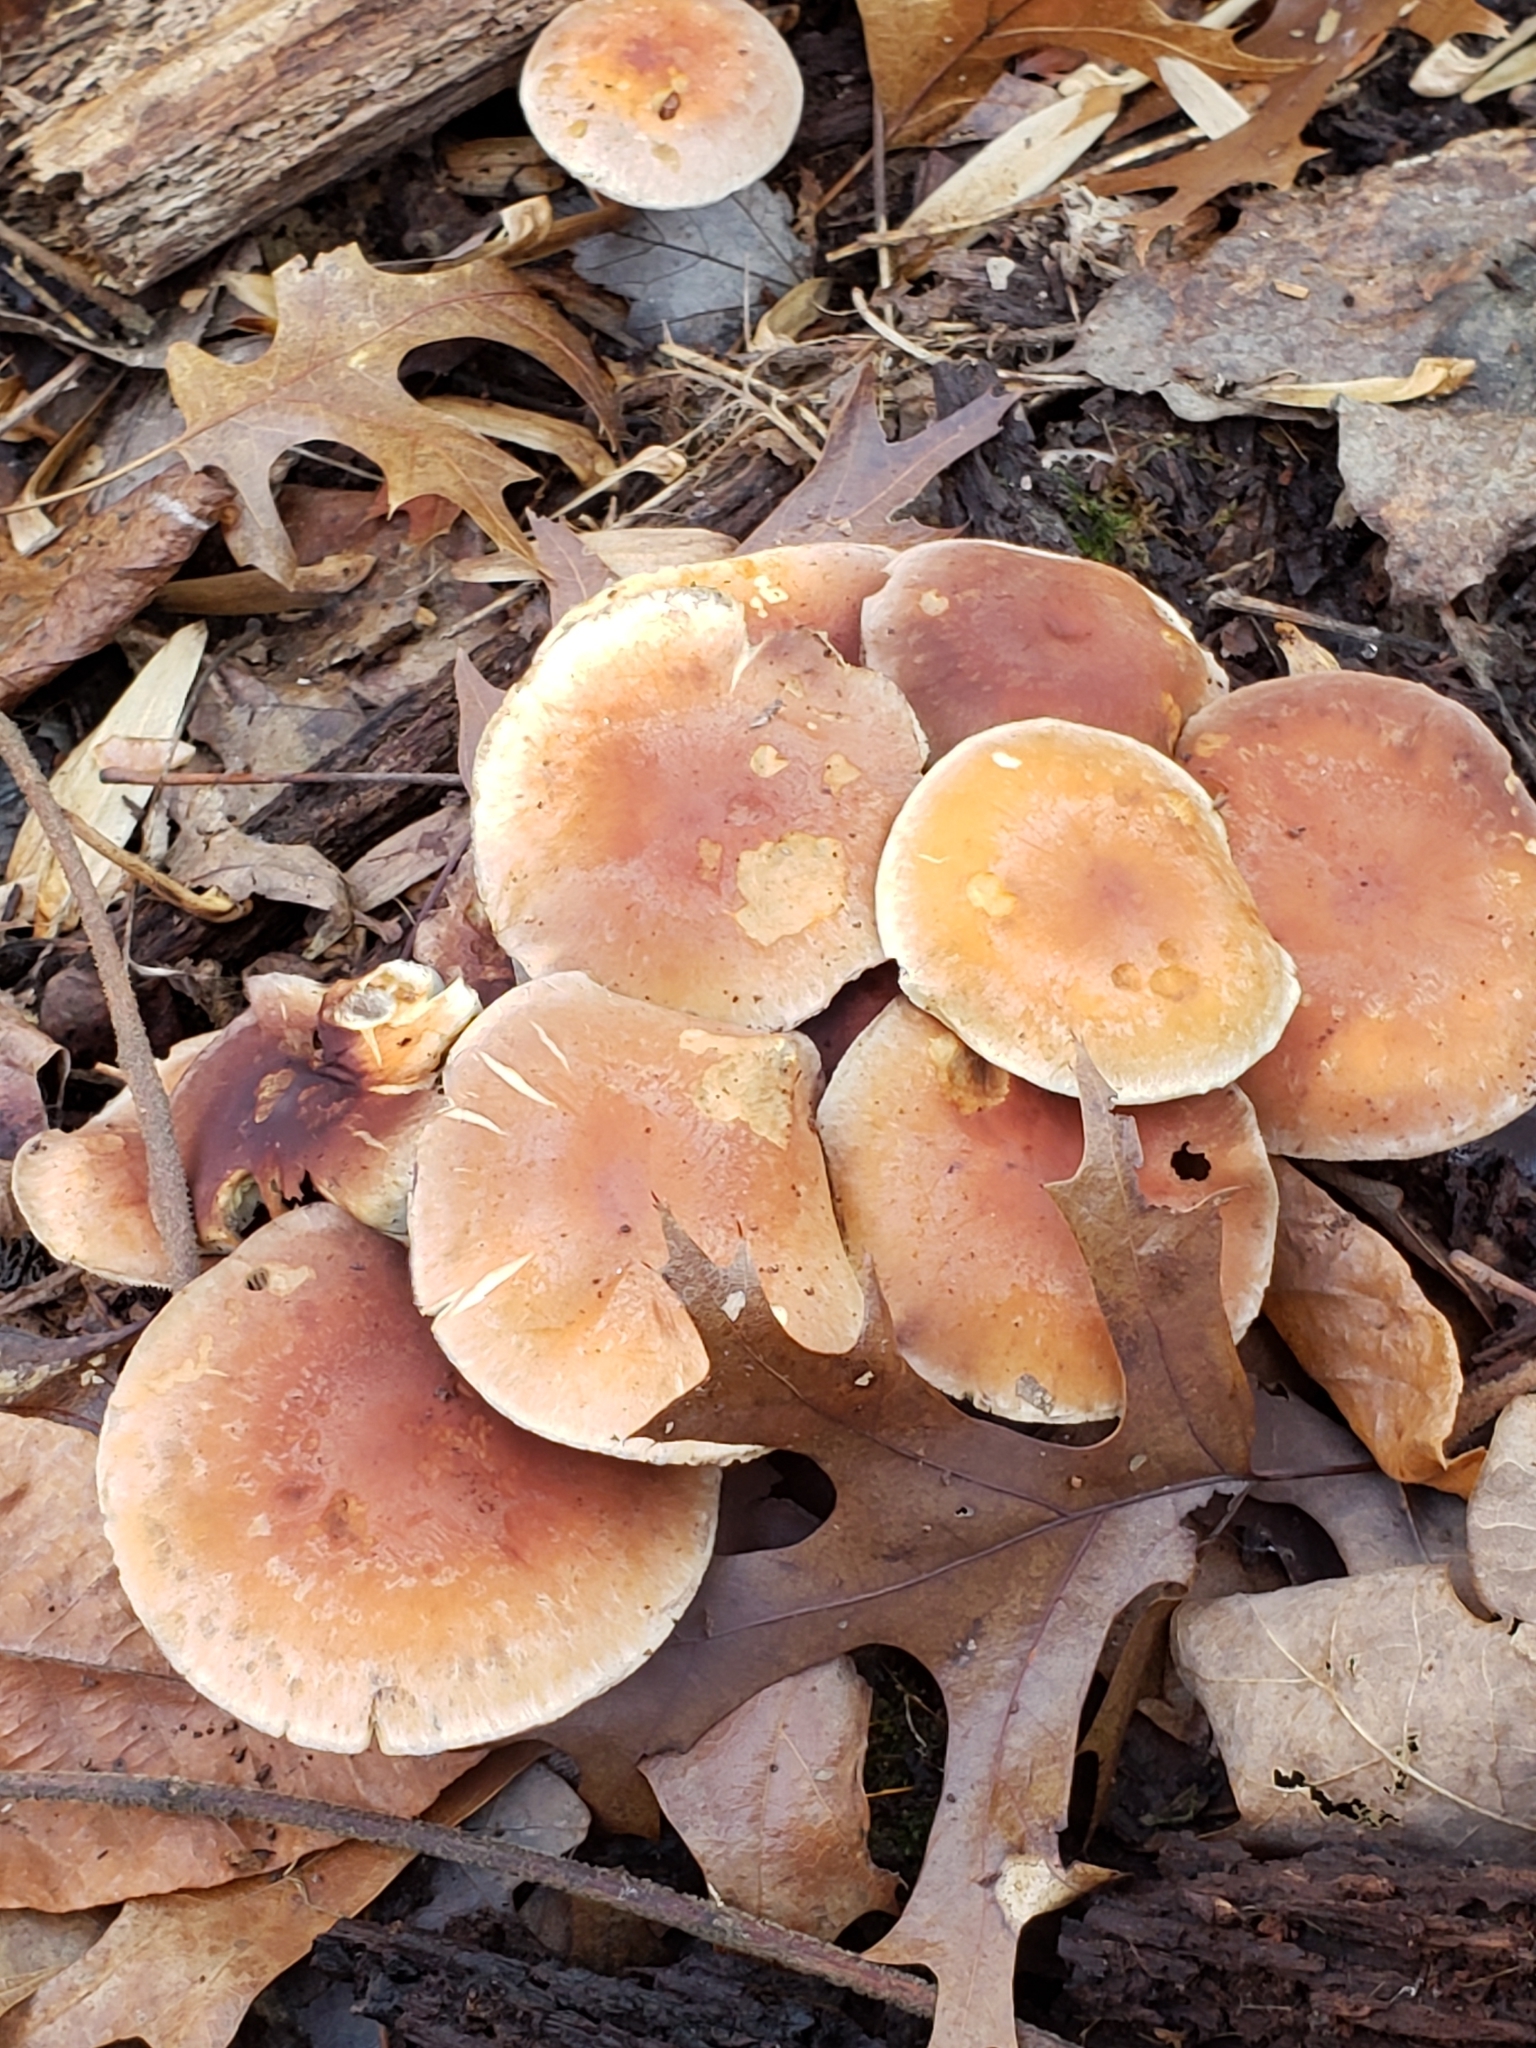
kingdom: Fungi
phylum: Basidiomycota
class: Agaricomycetes
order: Agaricales
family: Strophariaceae
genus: Hypholoma
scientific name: Hypholoma lateritium
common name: Brick caps
